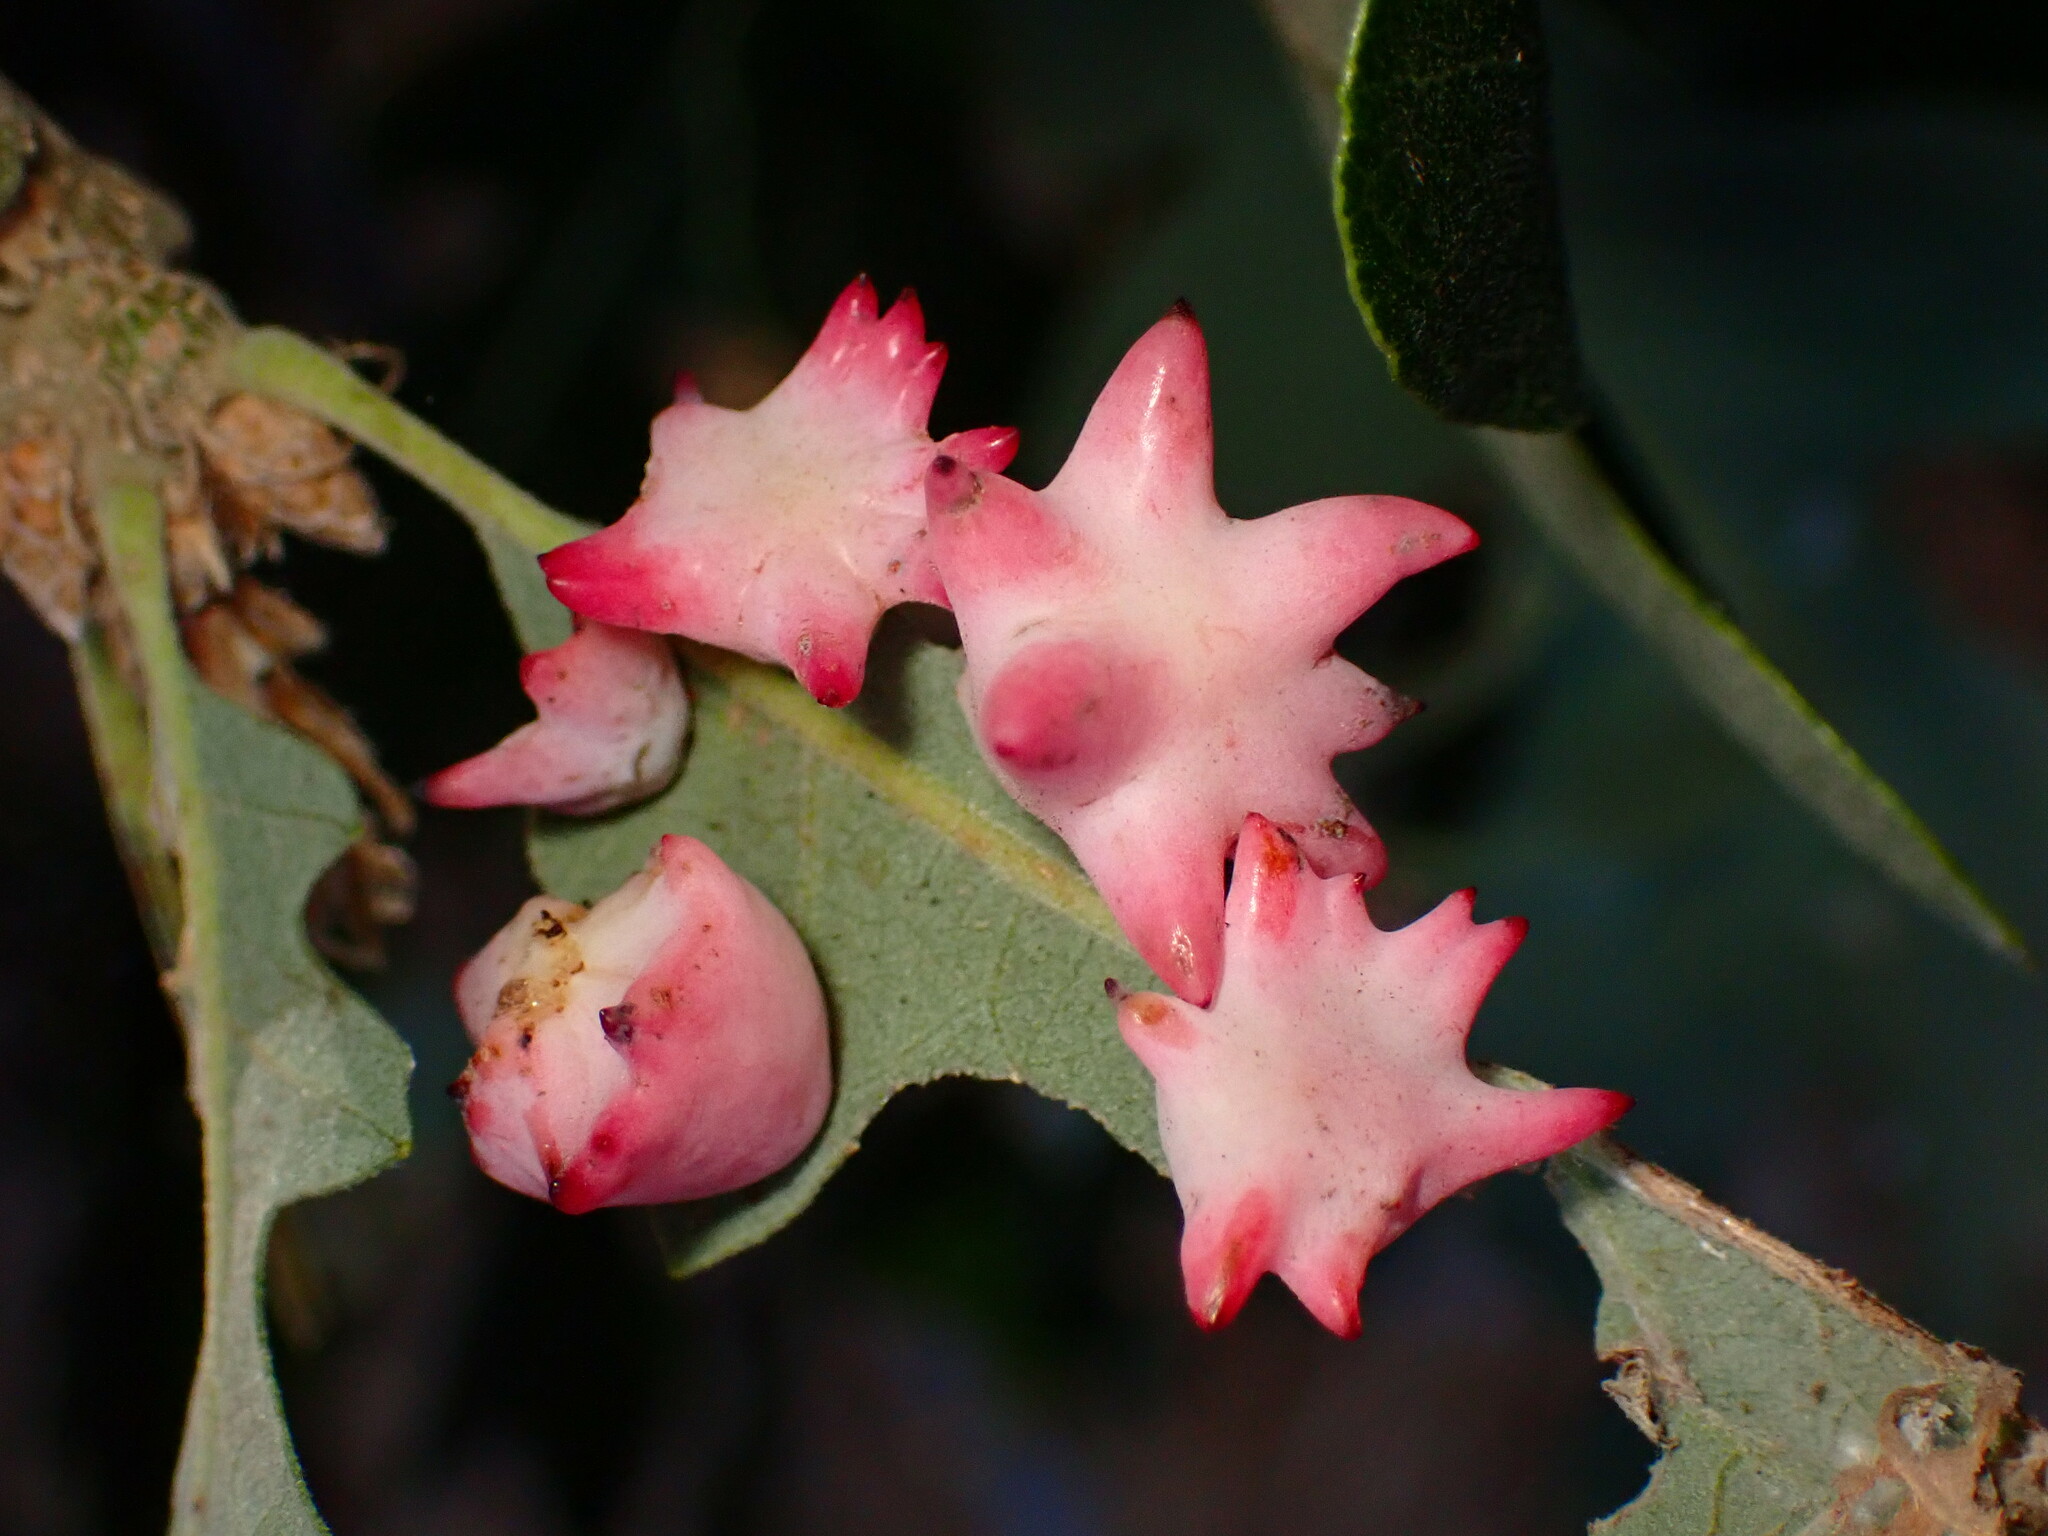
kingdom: Animalia
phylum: Arthropoda
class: Insecta
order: Hymenoptera
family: Cynipidae
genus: Cynips
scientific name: Cynips douglasi
